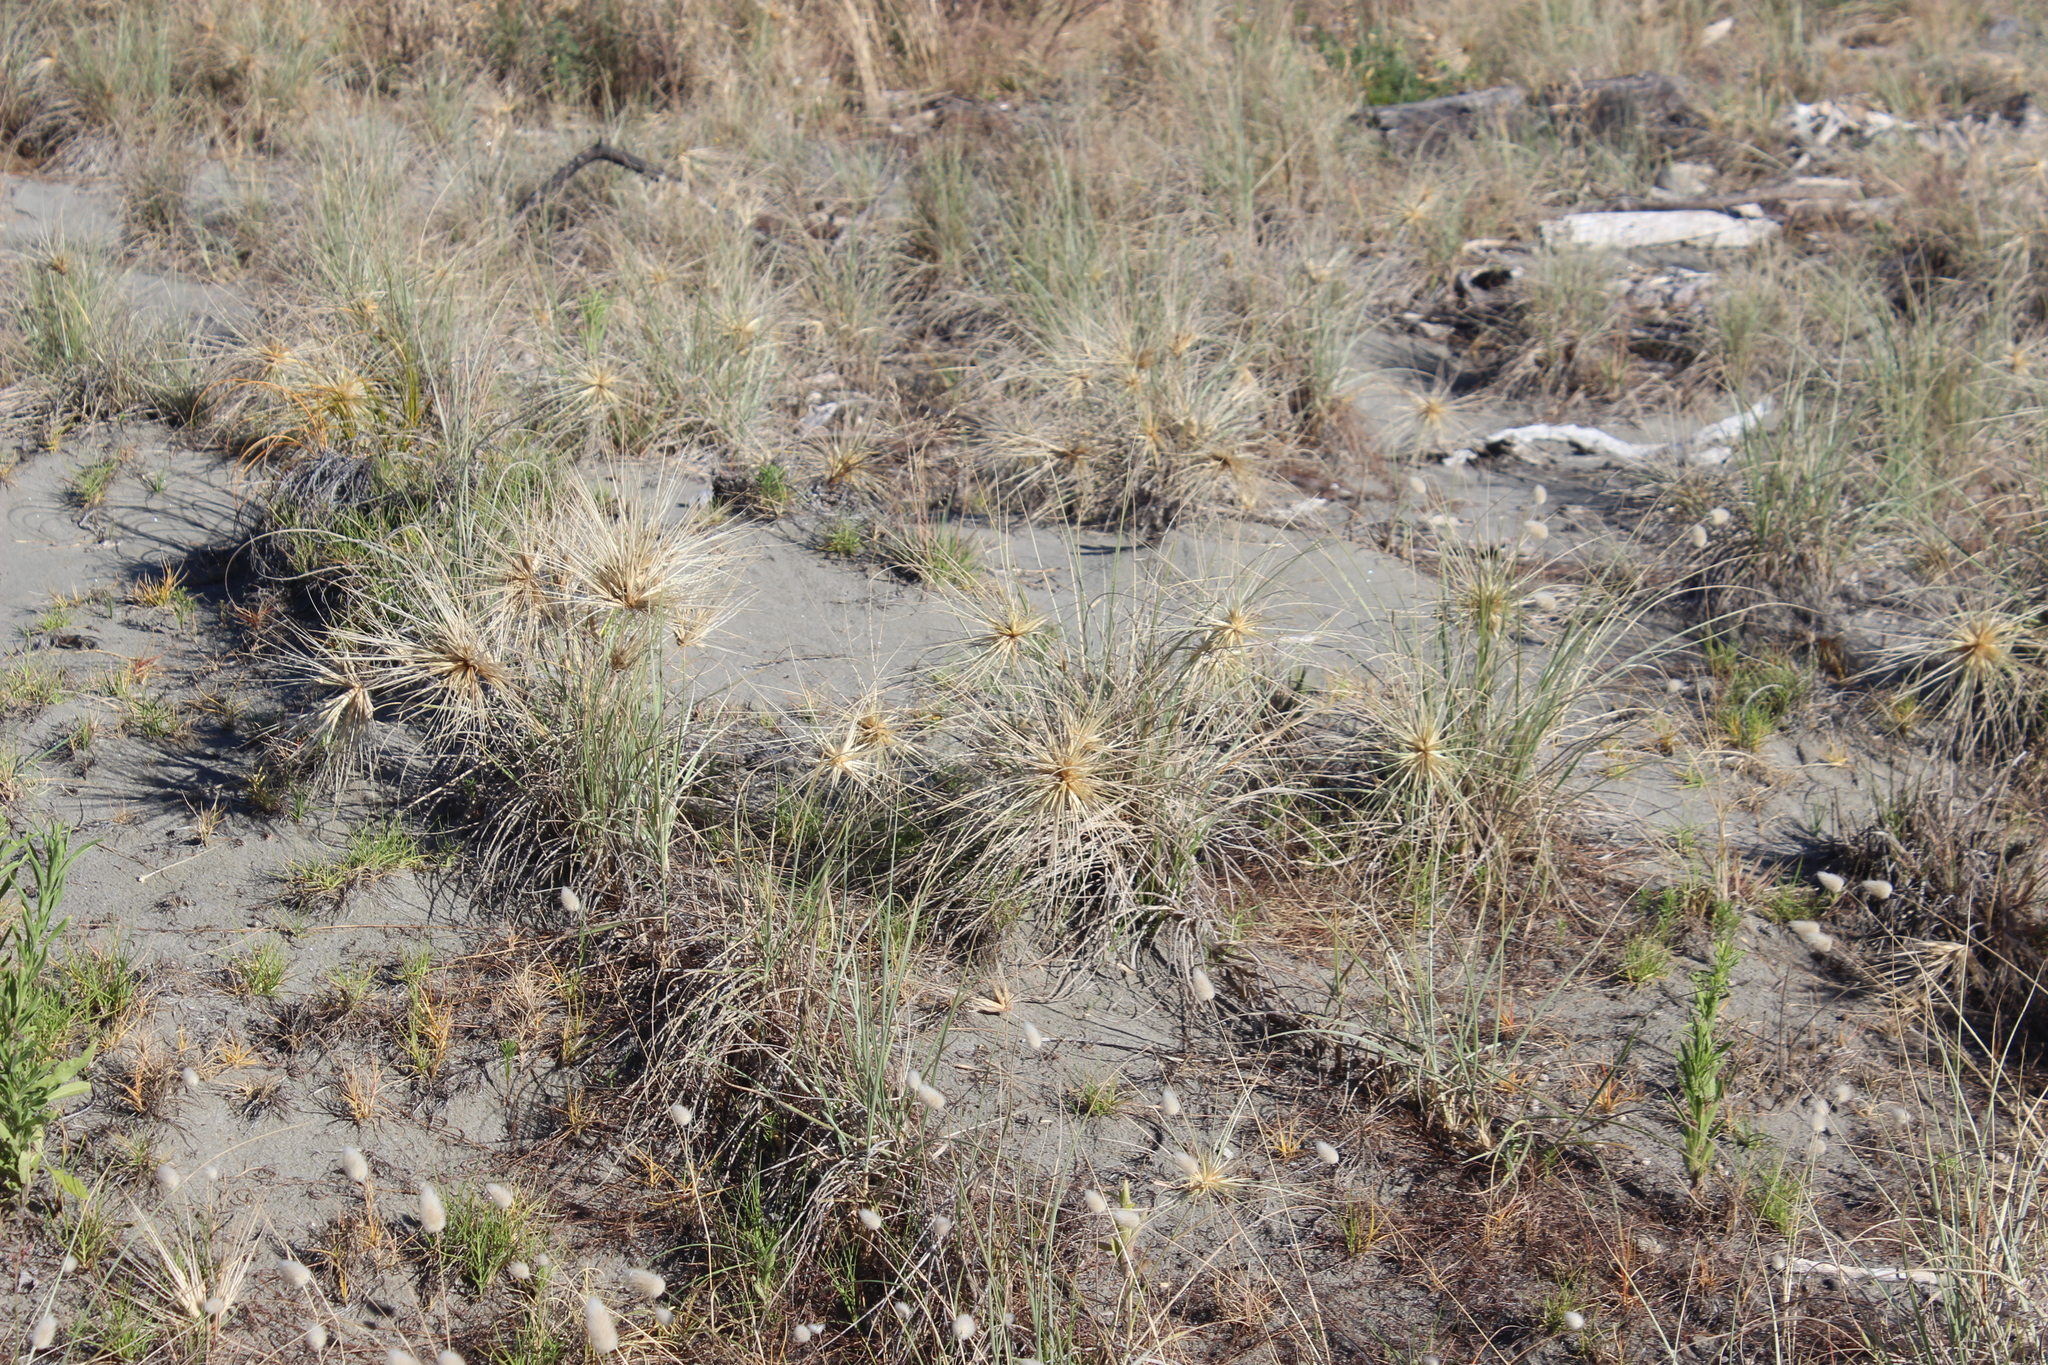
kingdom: Plantae
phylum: Tracheophyta
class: Liliopsida
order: Poales
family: Poaceae
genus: Spinifex
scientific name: Spinifex sericeus
